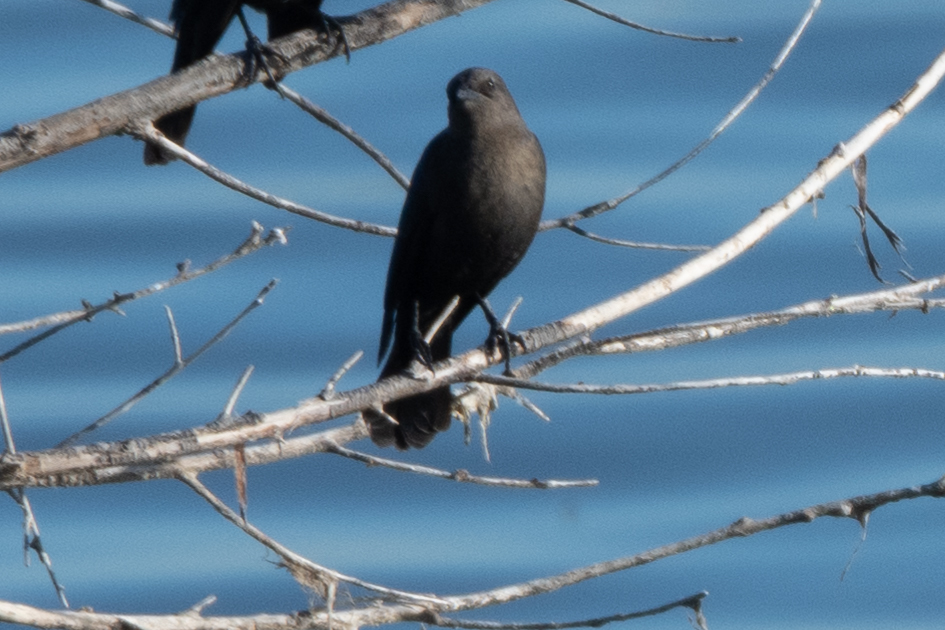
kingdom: Animalia
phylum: Chordata
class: Aves
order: Passeriformes
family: Icteridae
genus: Euphagus
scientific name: Euphagus cyanocephalus
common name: Brewer's blackbird
